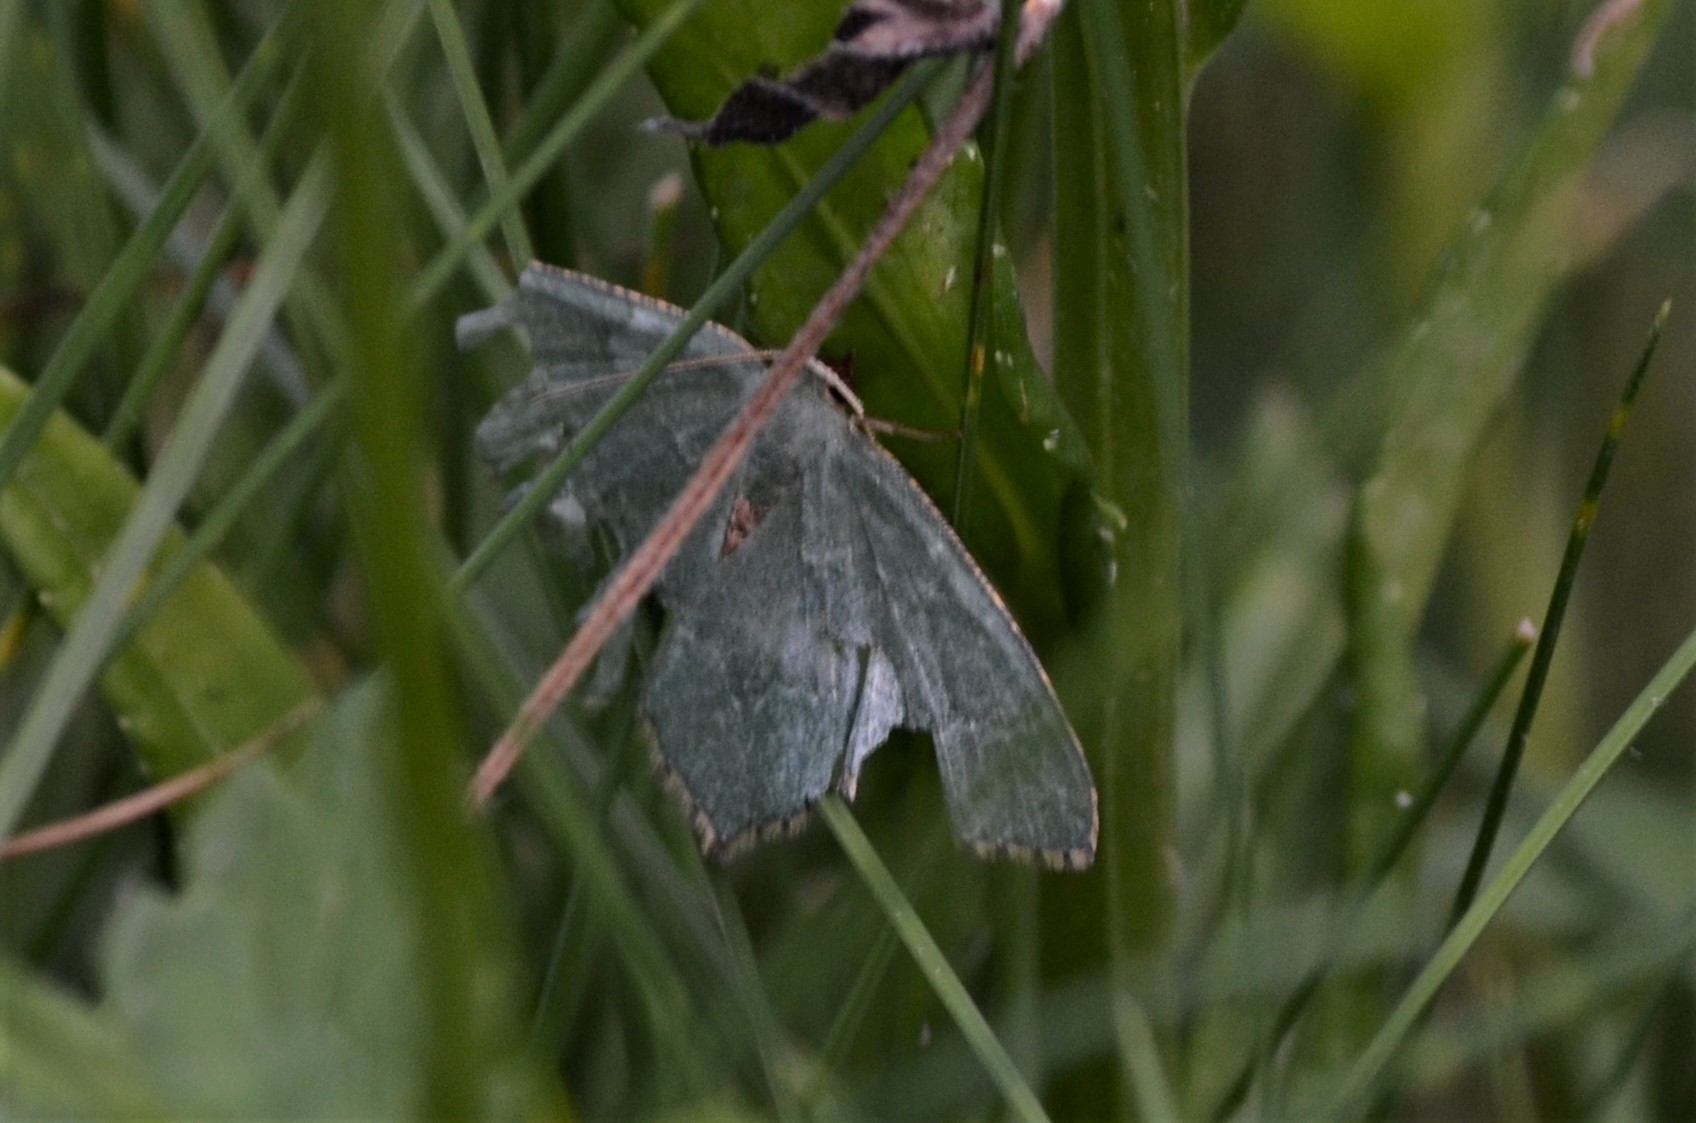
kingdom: Animalia
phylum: Arthropoda
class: Insecta
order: Lepidoptera
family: Geometridae
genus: Hemithea
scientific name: Hemithea aestivaria
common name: Common emerald
